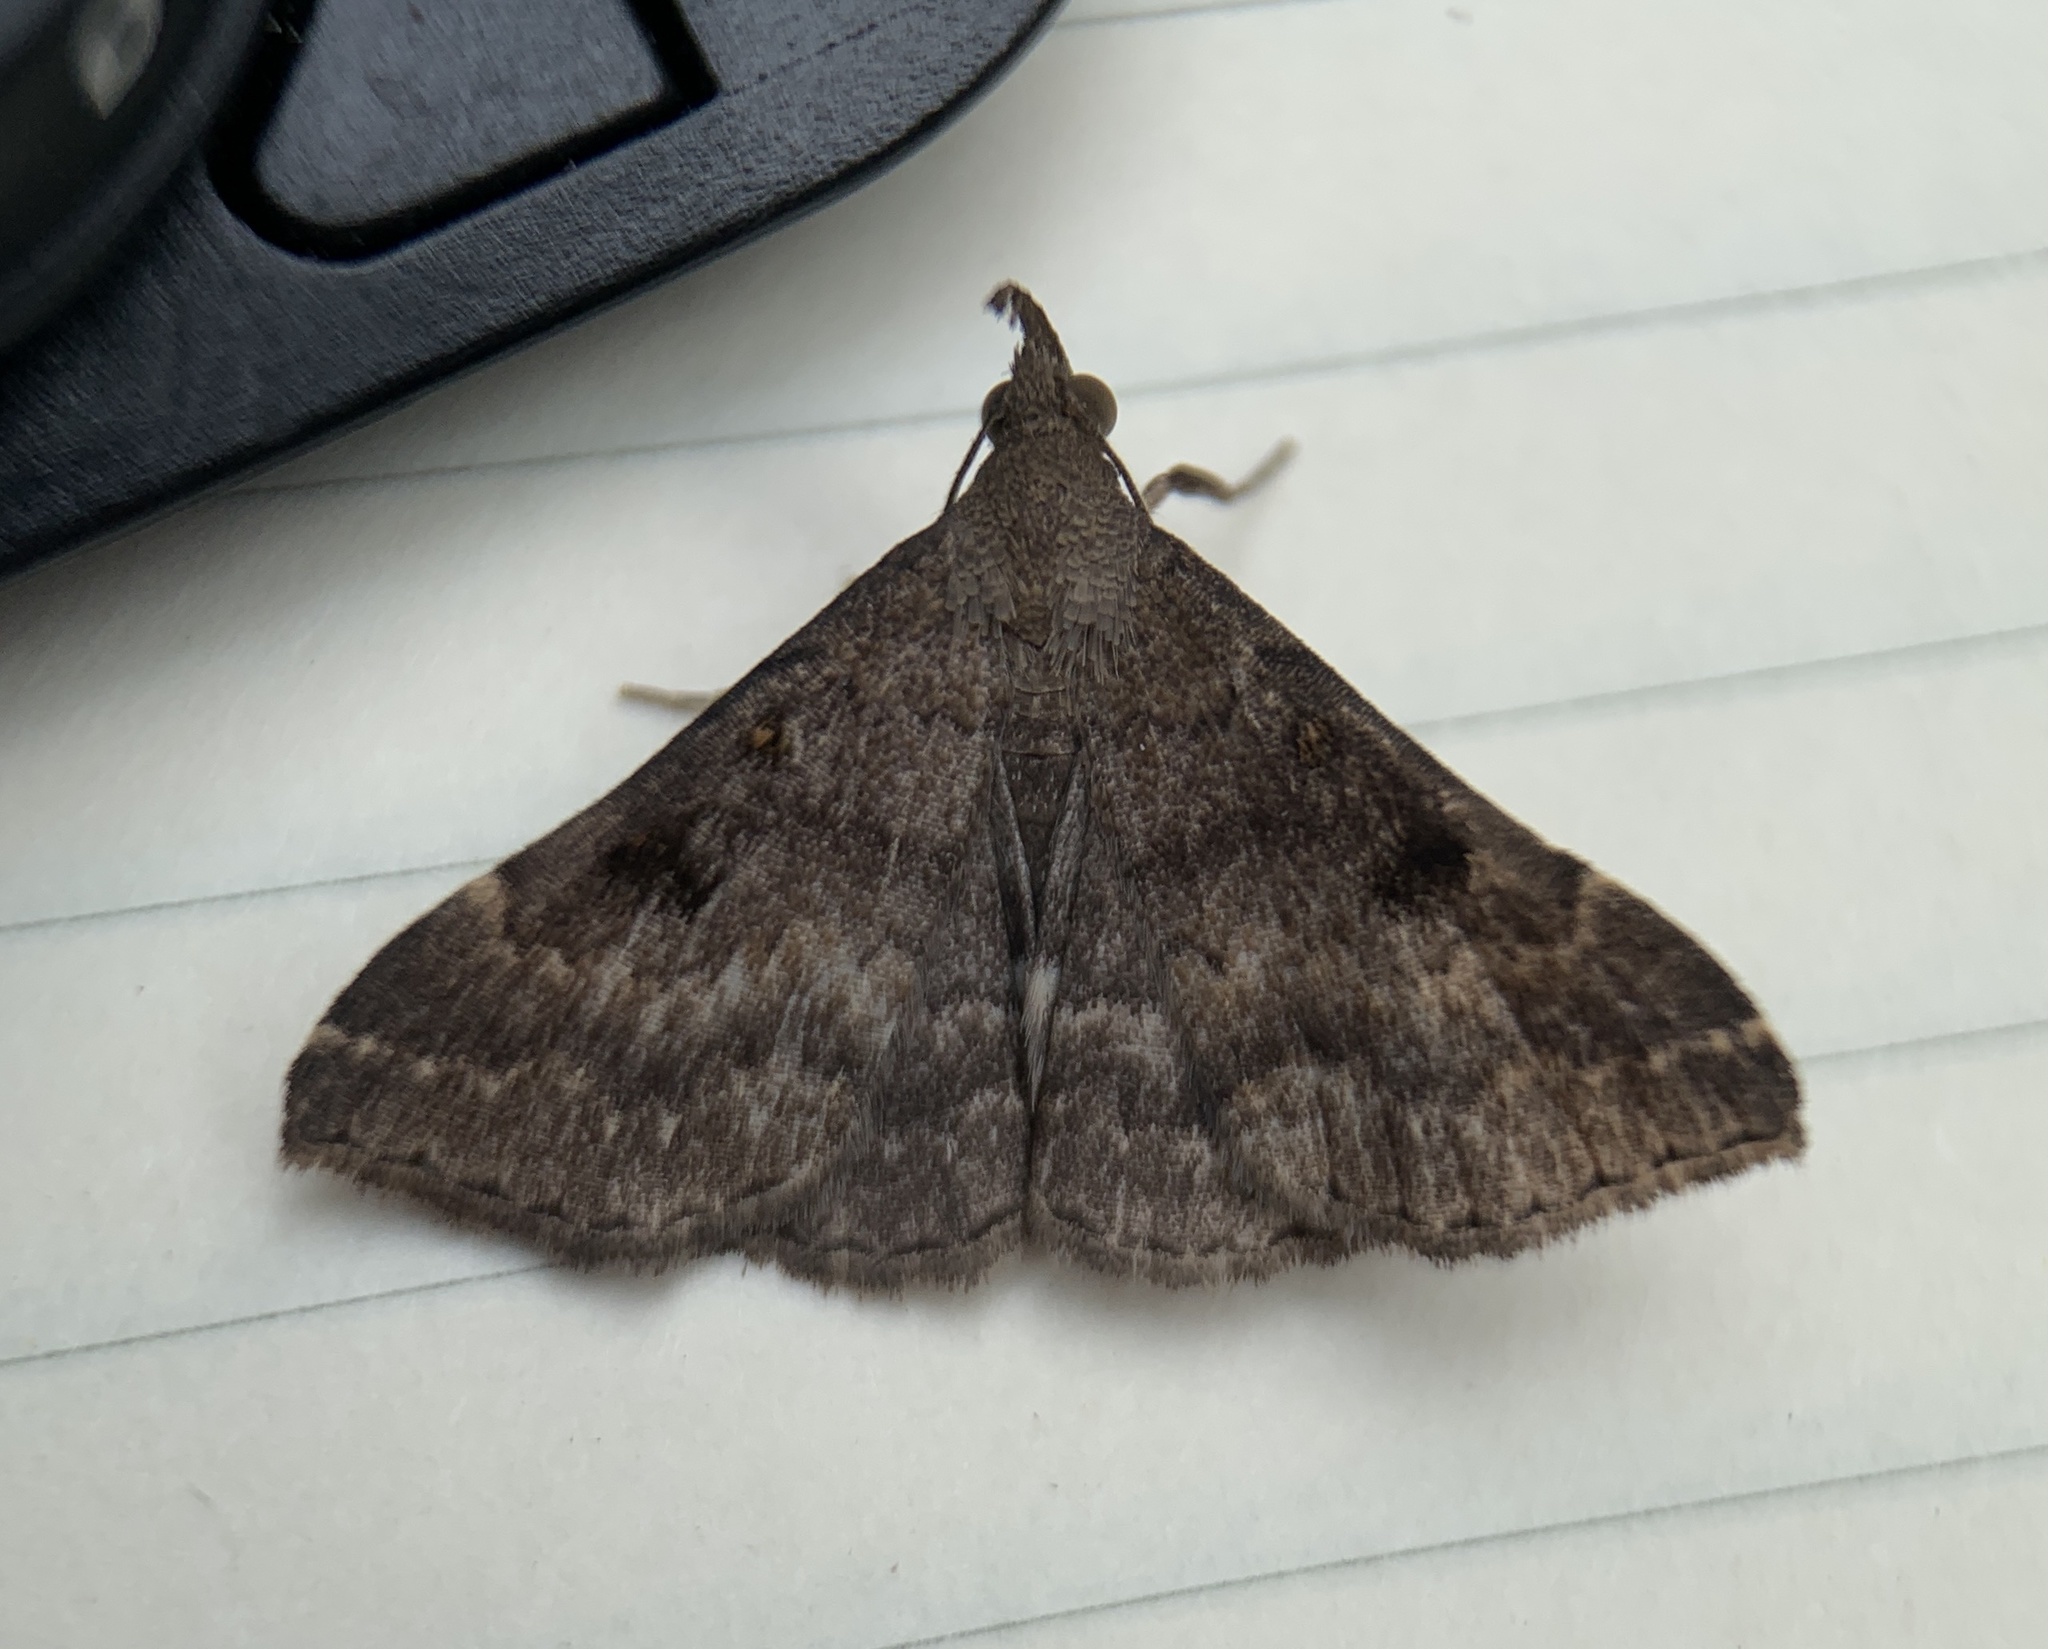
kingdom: Animalia
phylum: Arthropoda
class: Insecta
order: Lepidoptera
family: Erebidae
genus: Renia
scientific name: Renia factiosalis
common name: Sociable renia moth
